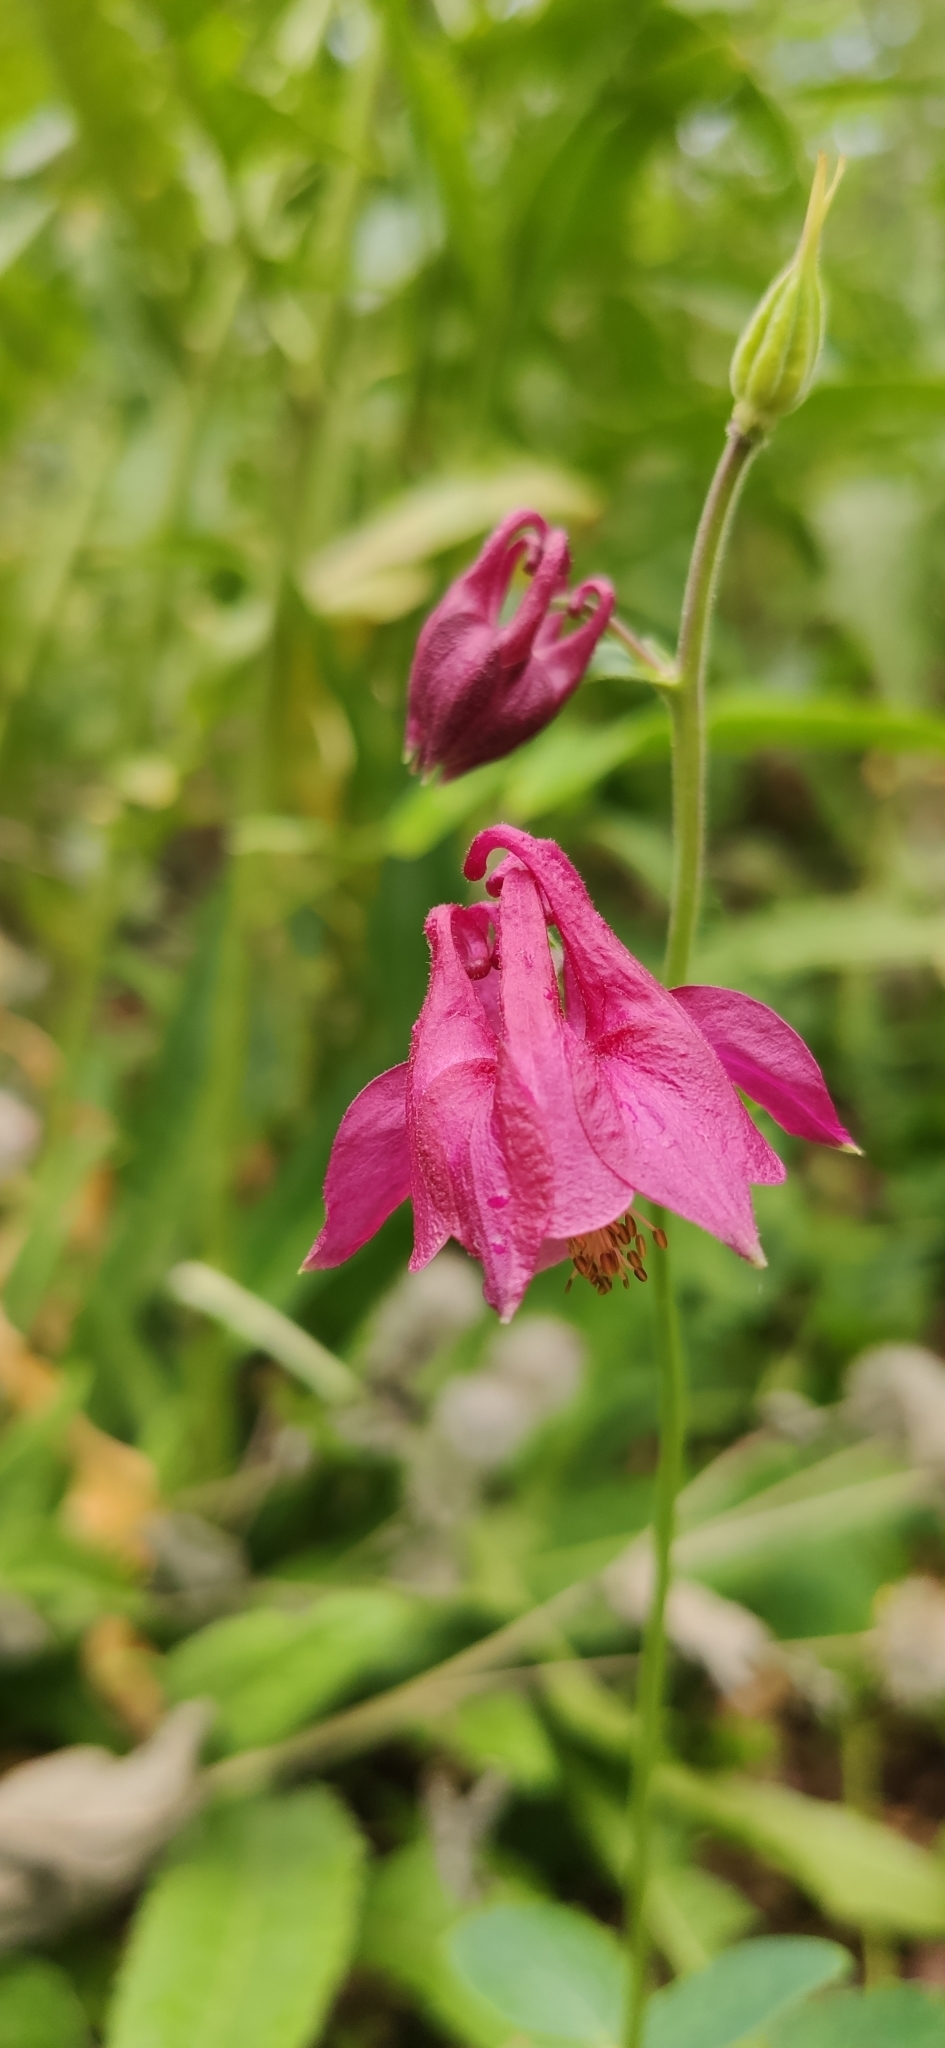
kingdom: Plantae
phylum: Tracheophyta
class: Magnoliopsida
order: Ranunculales
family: Ranunculaceae
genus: Aquilegia
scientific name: Aquilegia vulgaris
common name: Columbine
